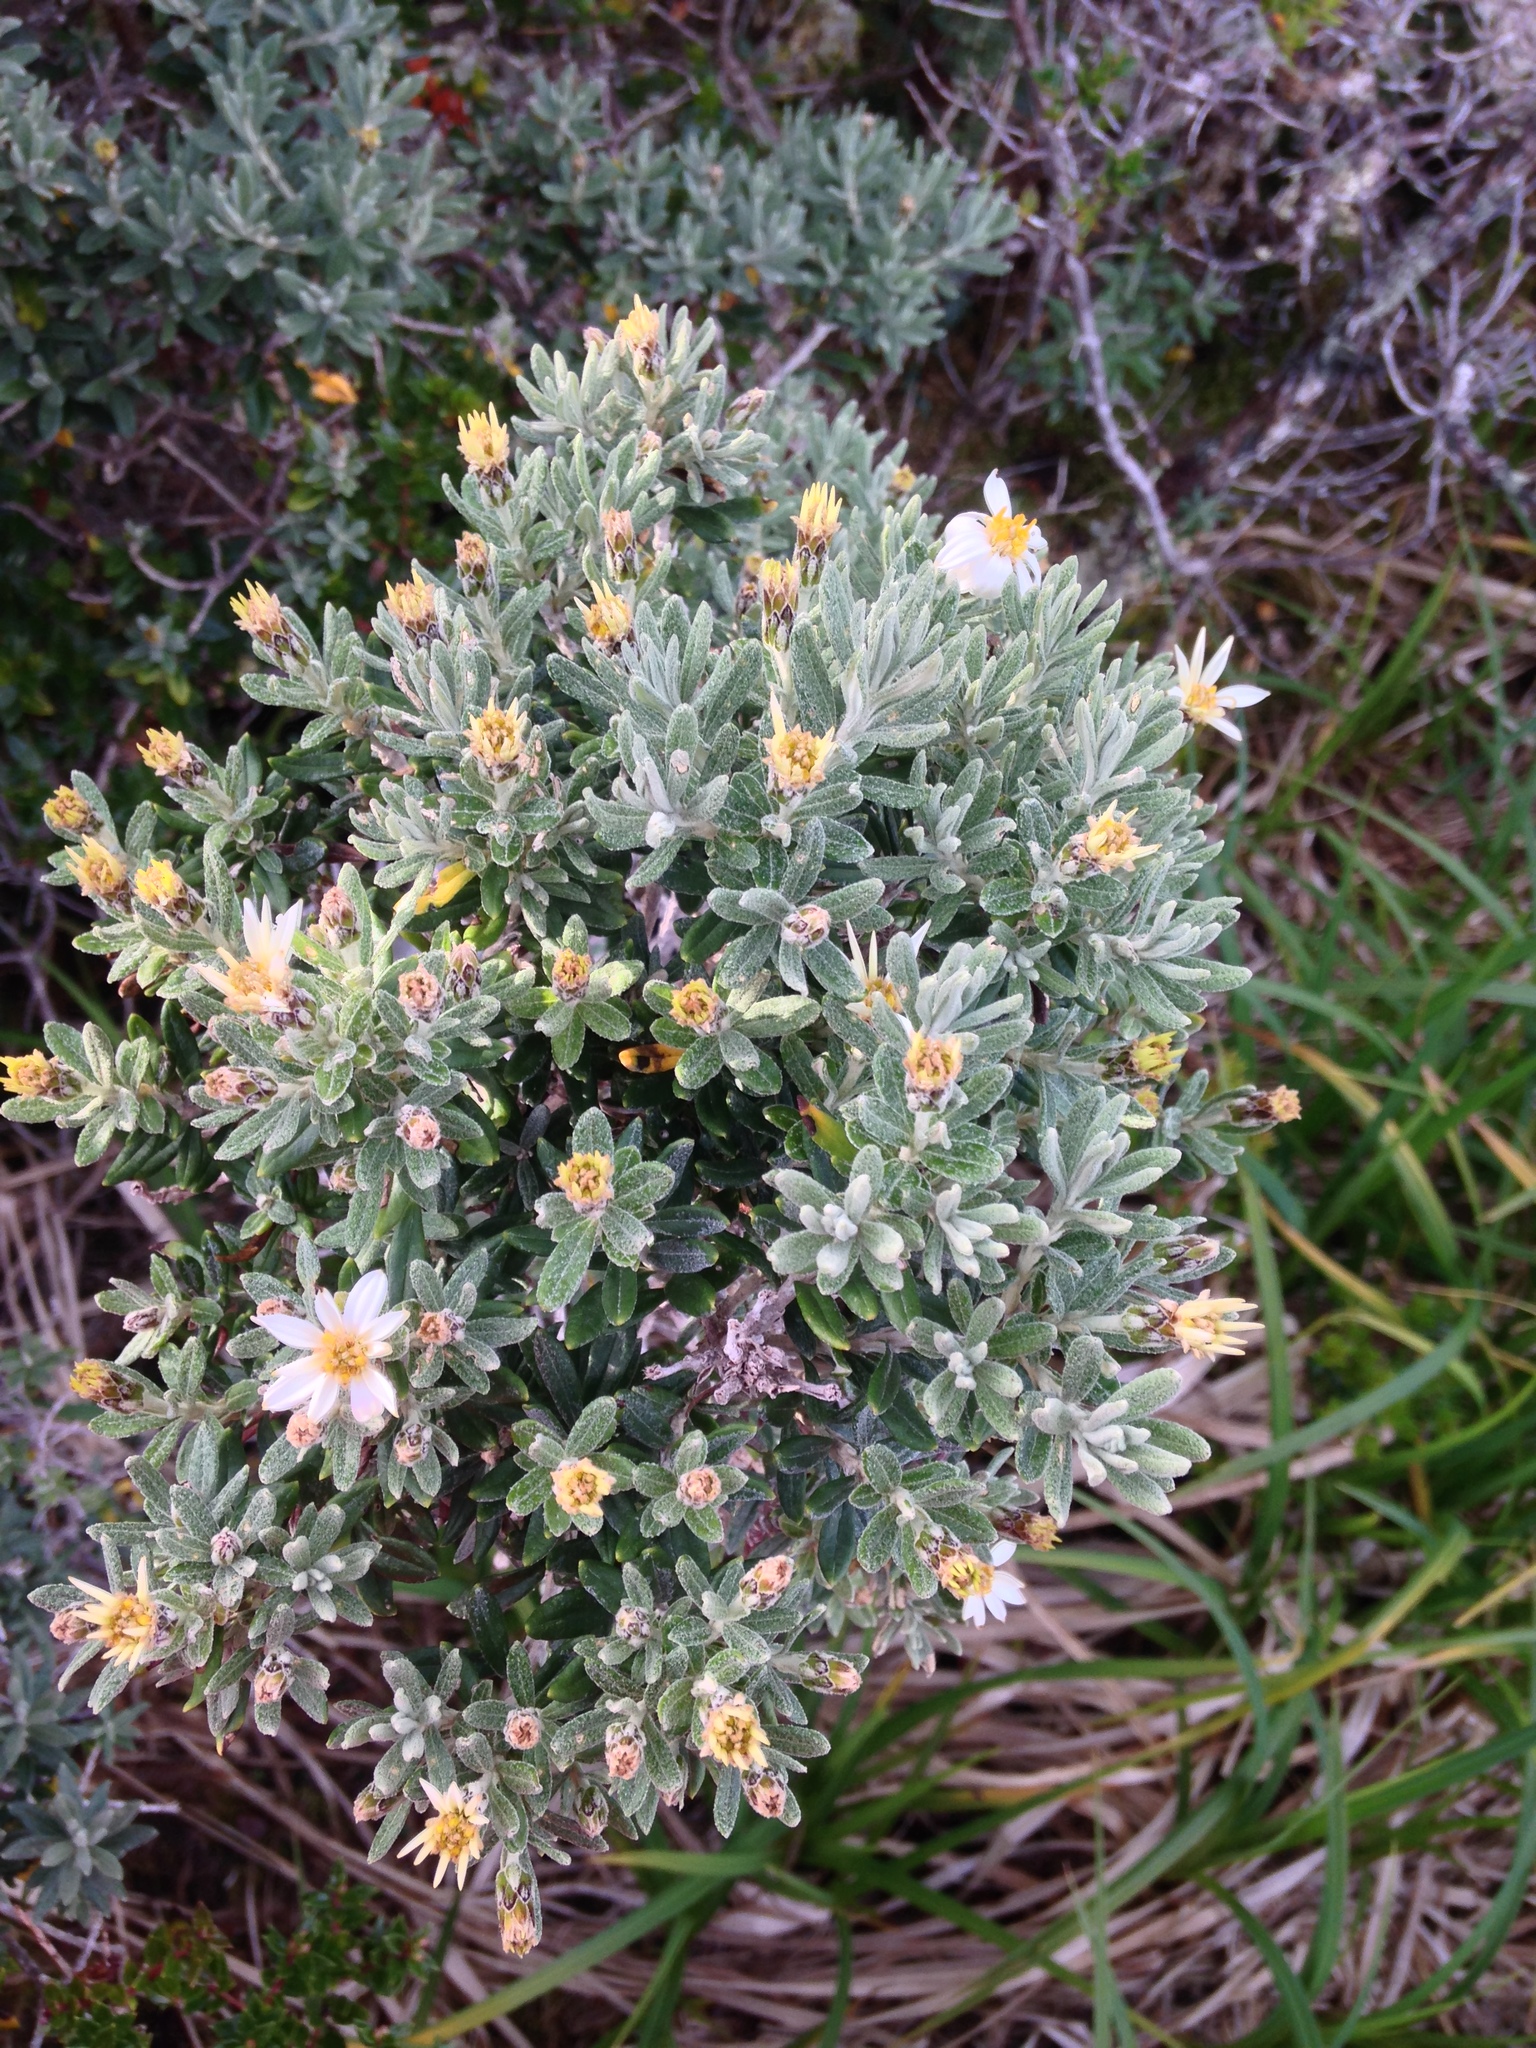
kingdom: Plantae
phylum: Tracheophyta
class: Magnoliopsida
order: Asterales
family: Asteraceae
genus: Chiliotrichum
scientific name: Chiliotrichum diffusum
